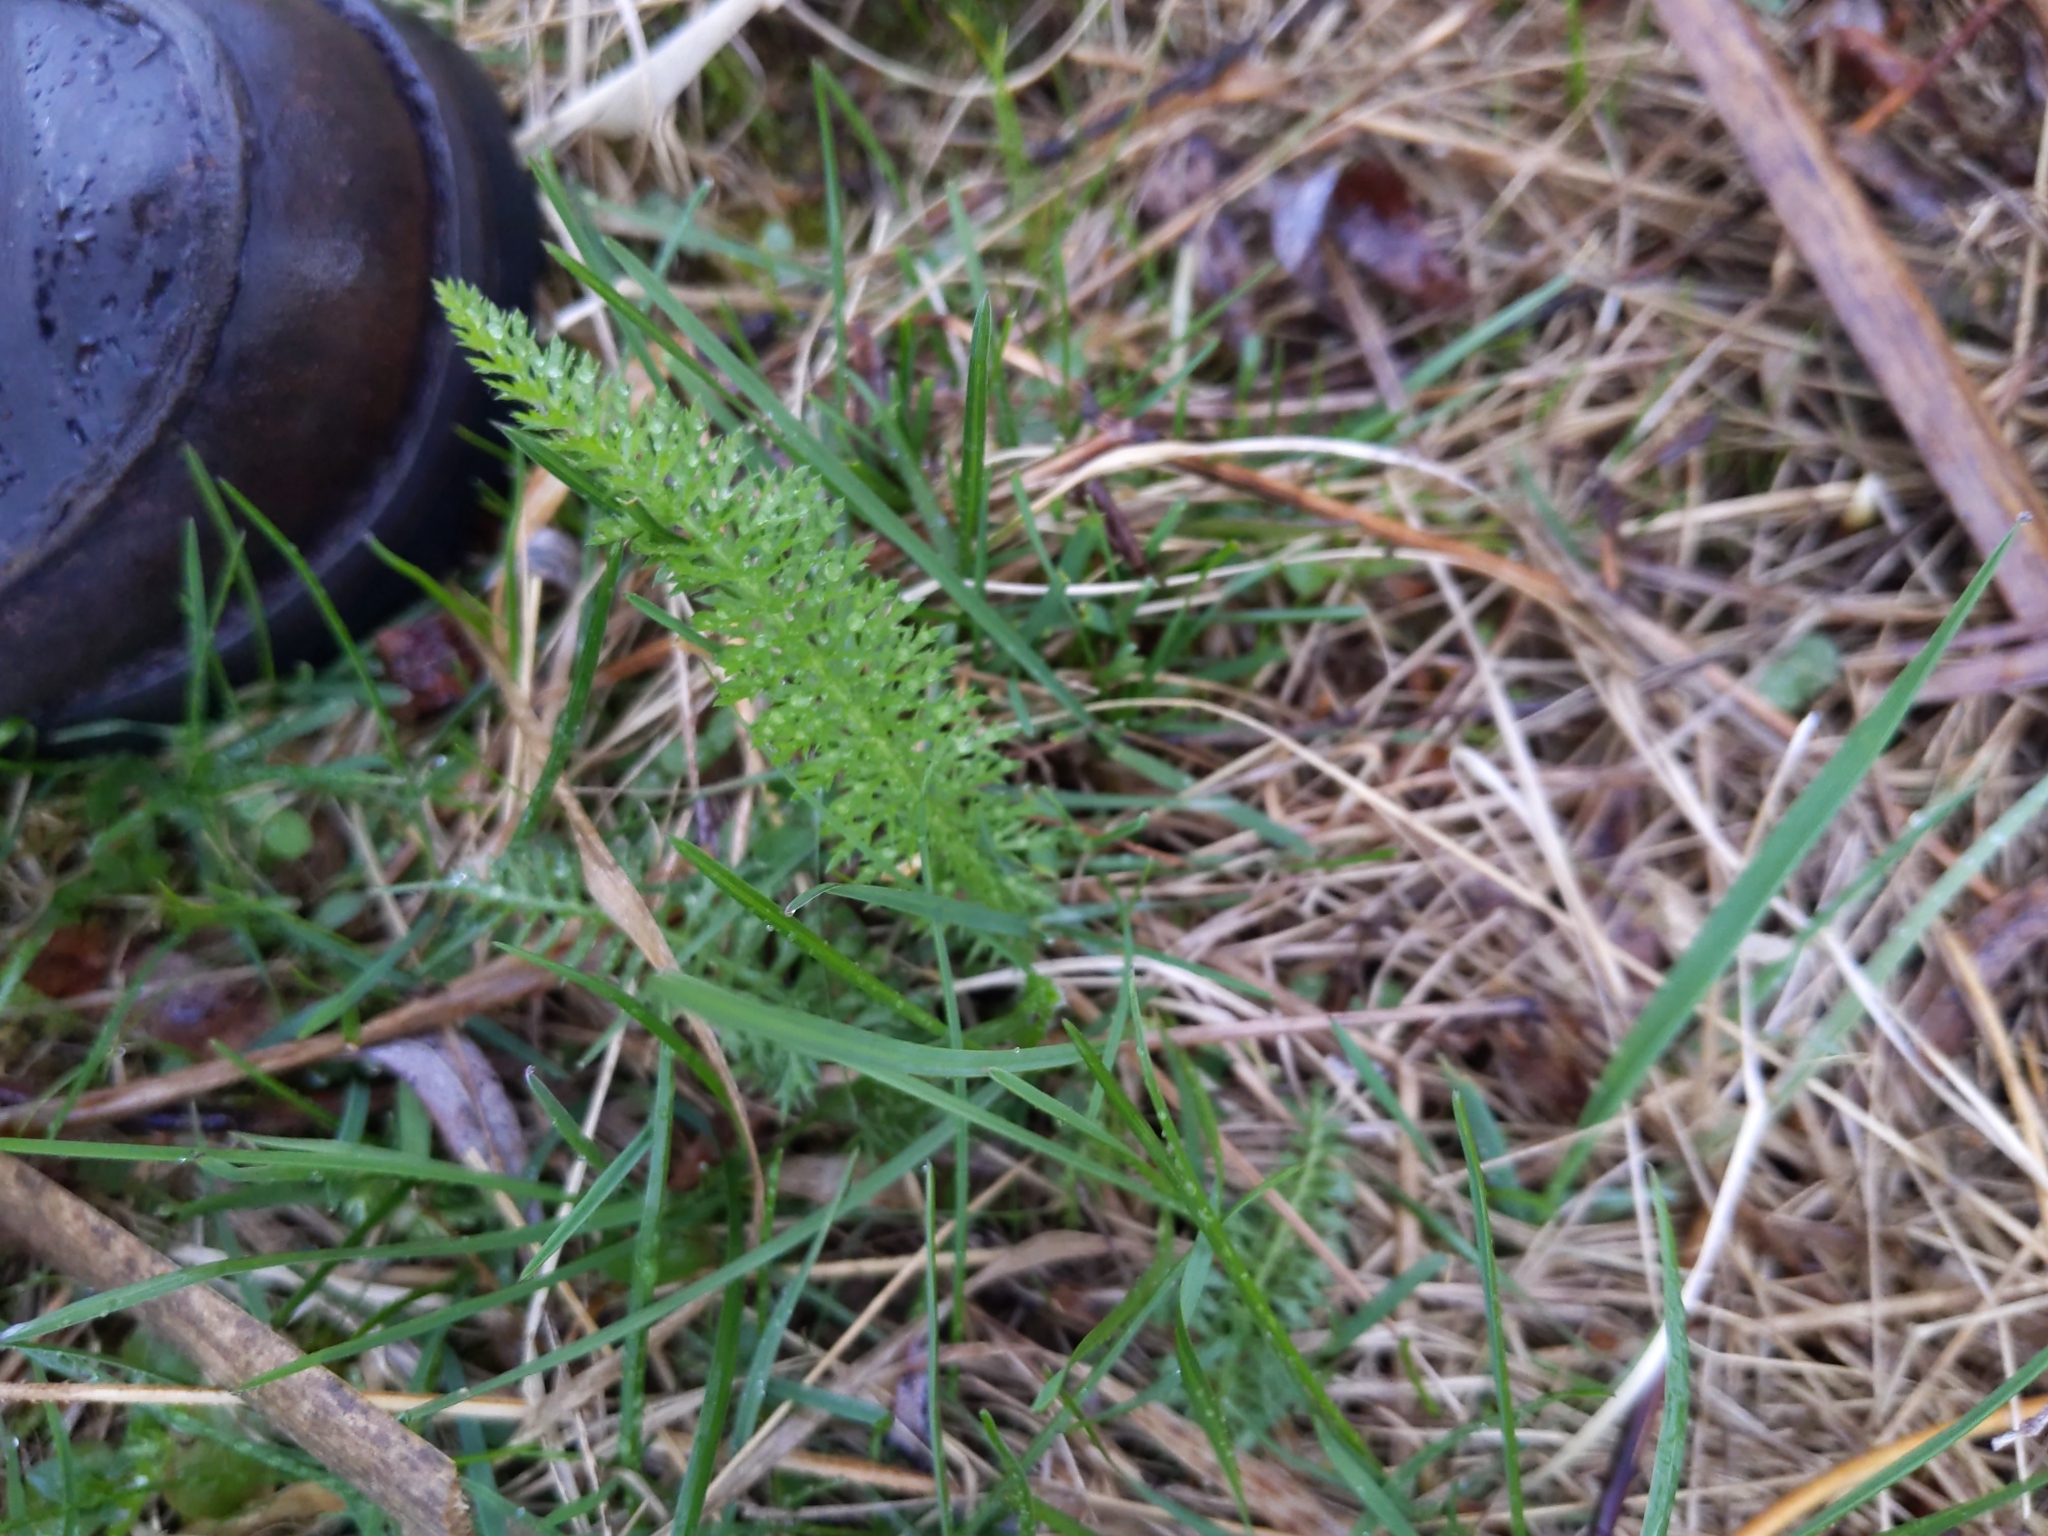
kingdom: Plantae
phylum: Tracheophyta
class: Magnoliopsida
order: Asterales
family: Asteraceae
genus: Achillea
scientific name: Achillea millefolium
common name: Yarrow
